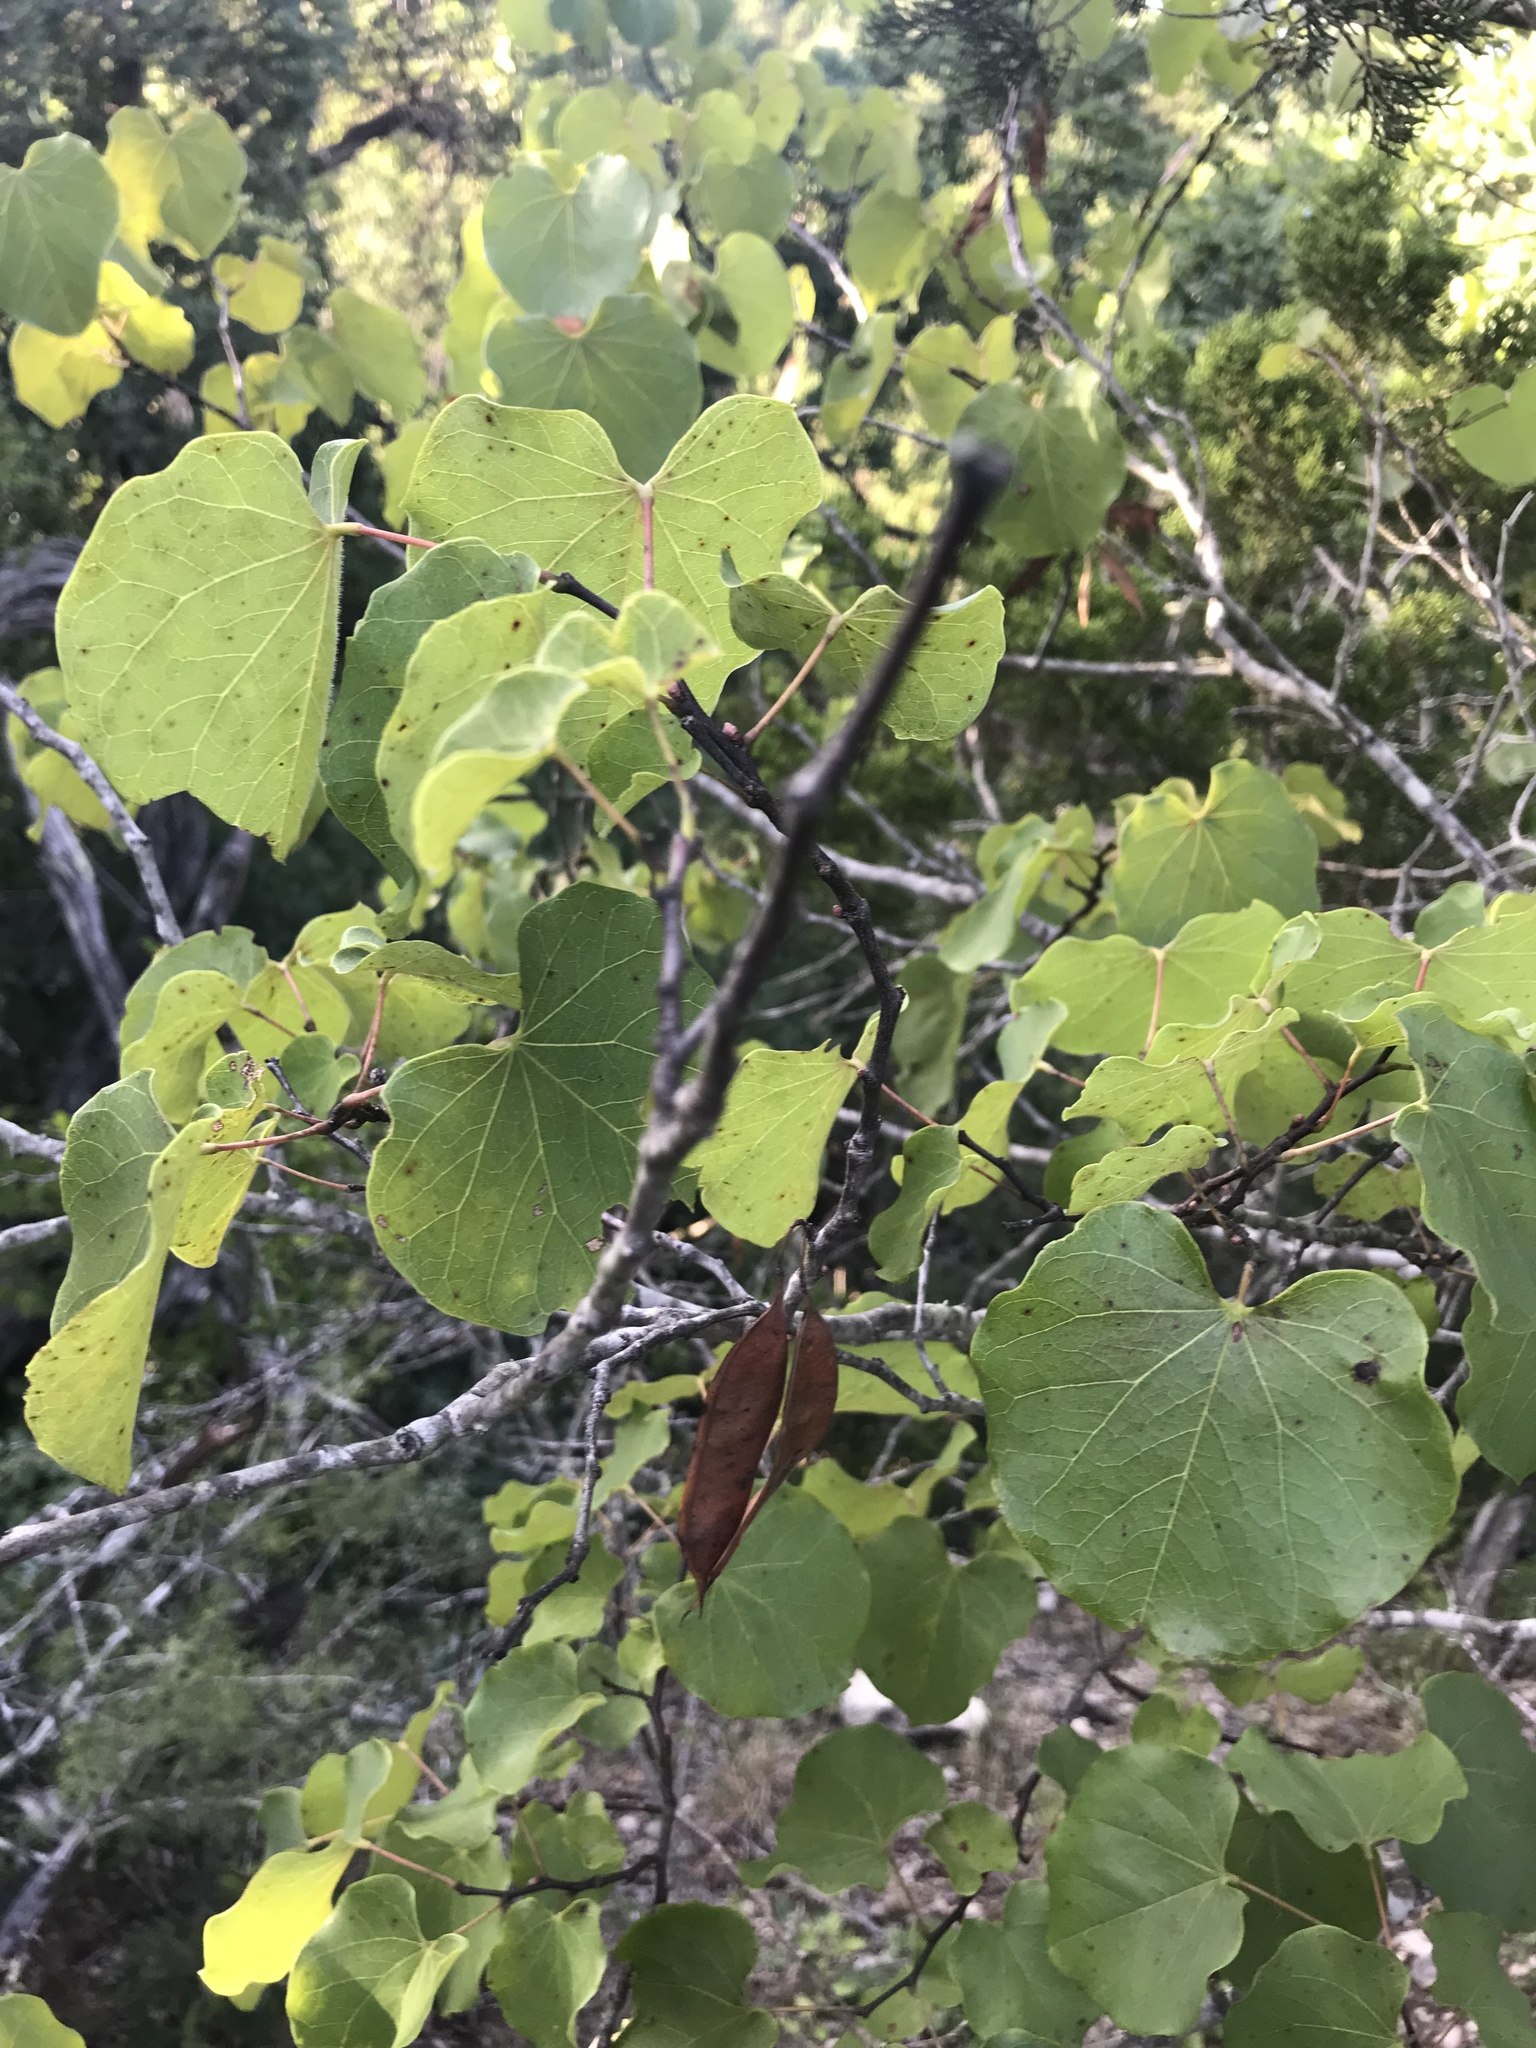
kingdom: Plantae
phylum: Tracheophyta
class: Magnoliopsida
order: Fabales
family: Fabaceae
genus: Cercis
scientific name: Cercis canadensis
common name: Eastern redbud
